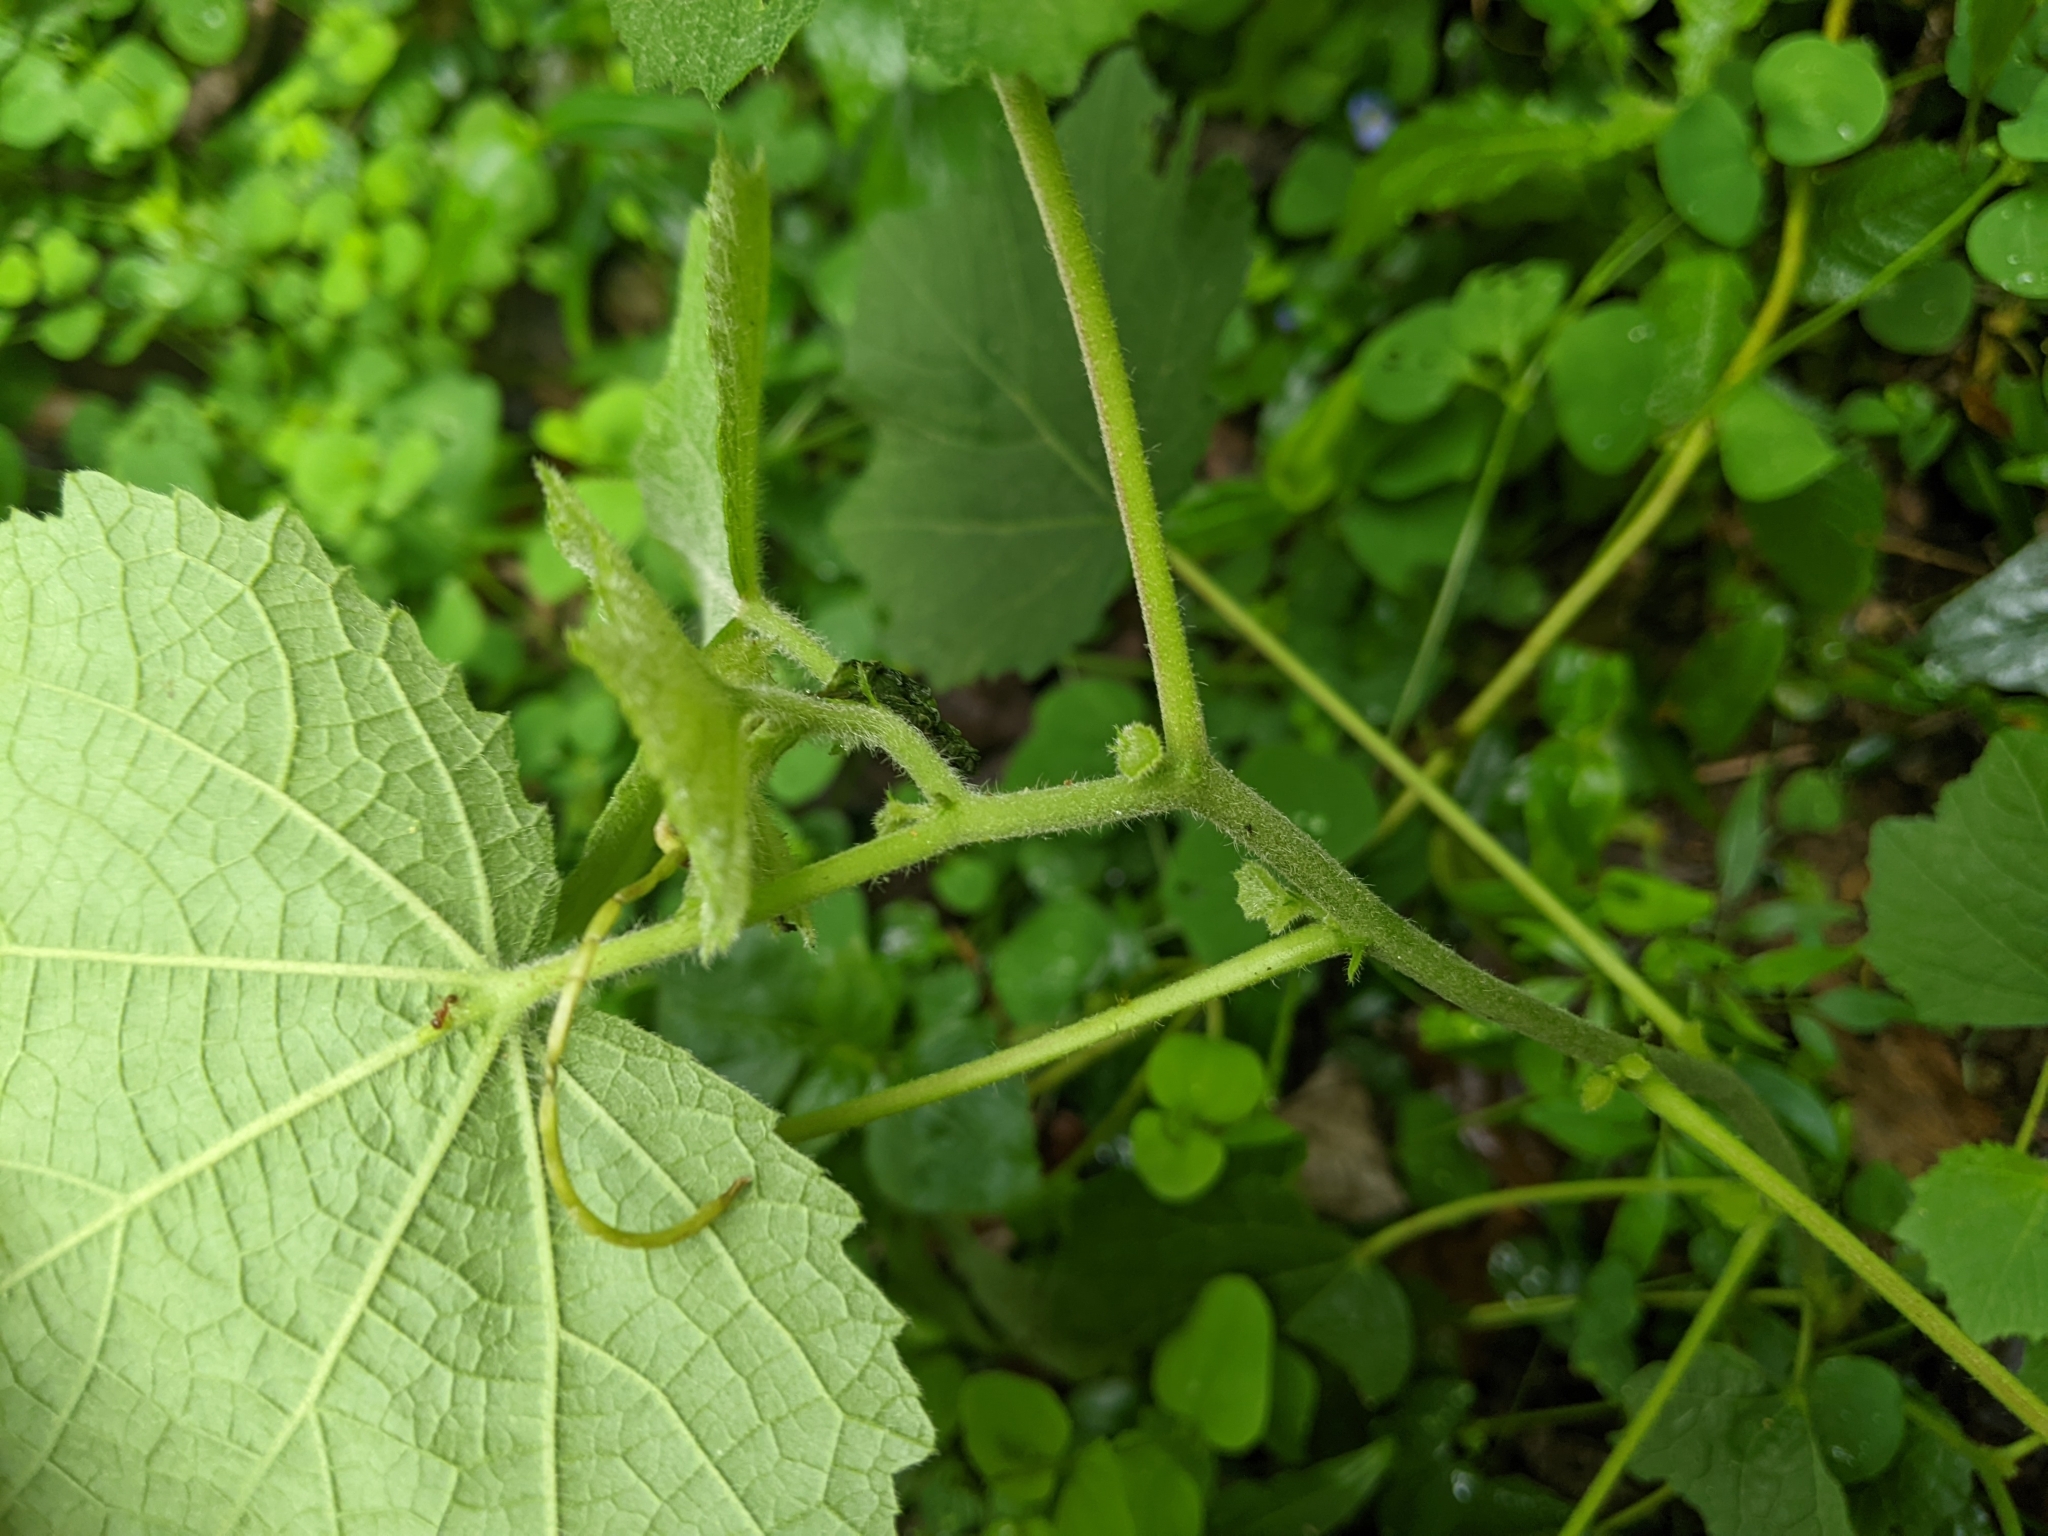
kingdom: Plantae
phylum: Tracheophyta
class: Magnoliopsida
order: Malvales
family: Malvaceae
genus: Urena
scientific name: Urena lobata
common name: Caesarweed
